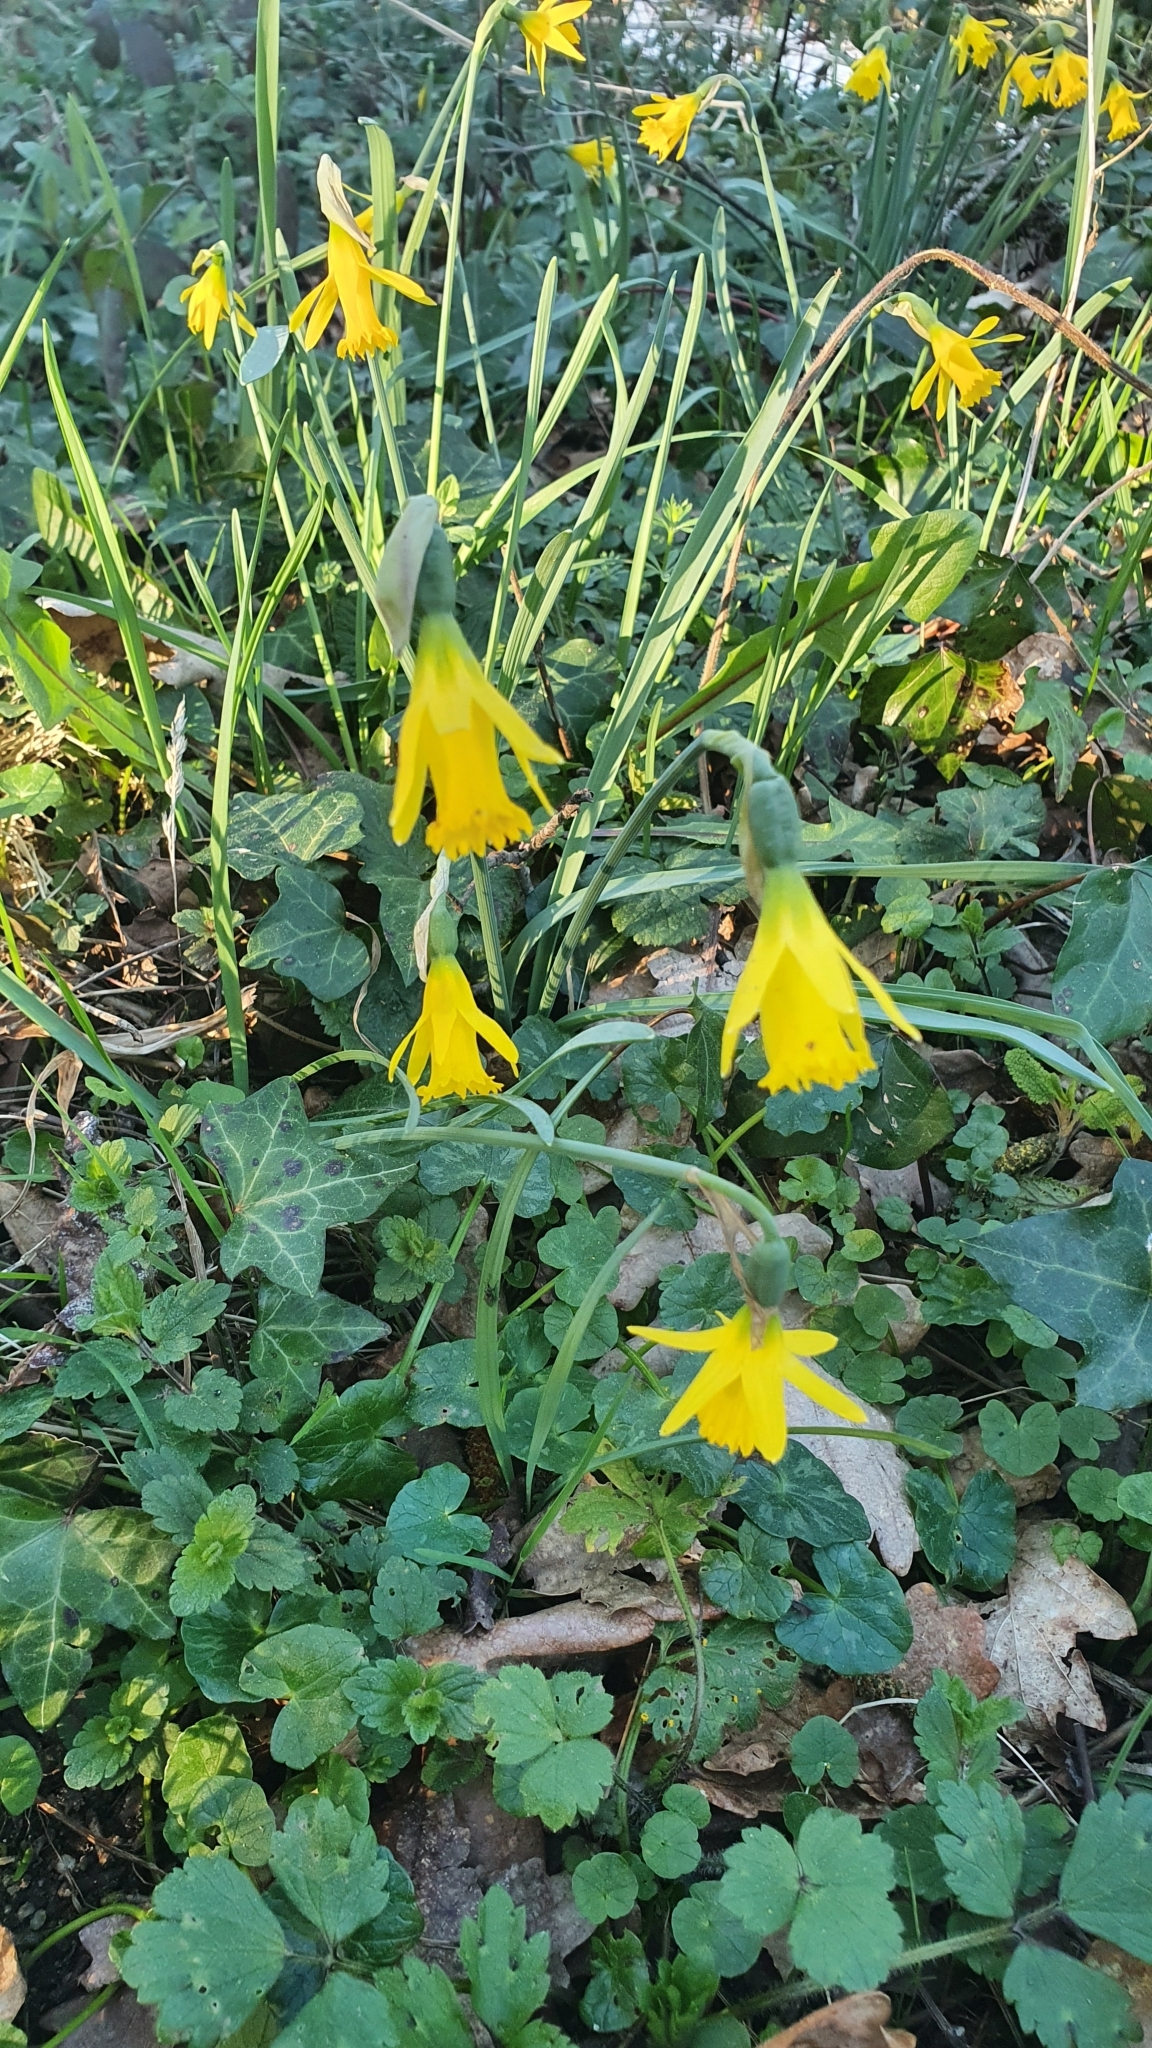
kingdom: Plantae
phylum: Tracheophyta
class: Liliopsida
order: Asparagales
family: Amaryllidaceae
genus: Narcissus
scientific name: Narcissus cuneiflorus
